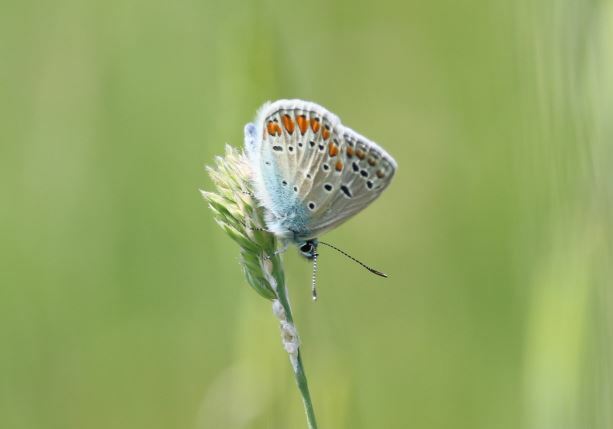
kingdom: Animalia
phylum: Arthropoda
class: Insecta
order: Lepidoptera
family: Lycaenidae
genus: Polyommatus
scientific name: Polyommatus icarus
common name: Common blue
